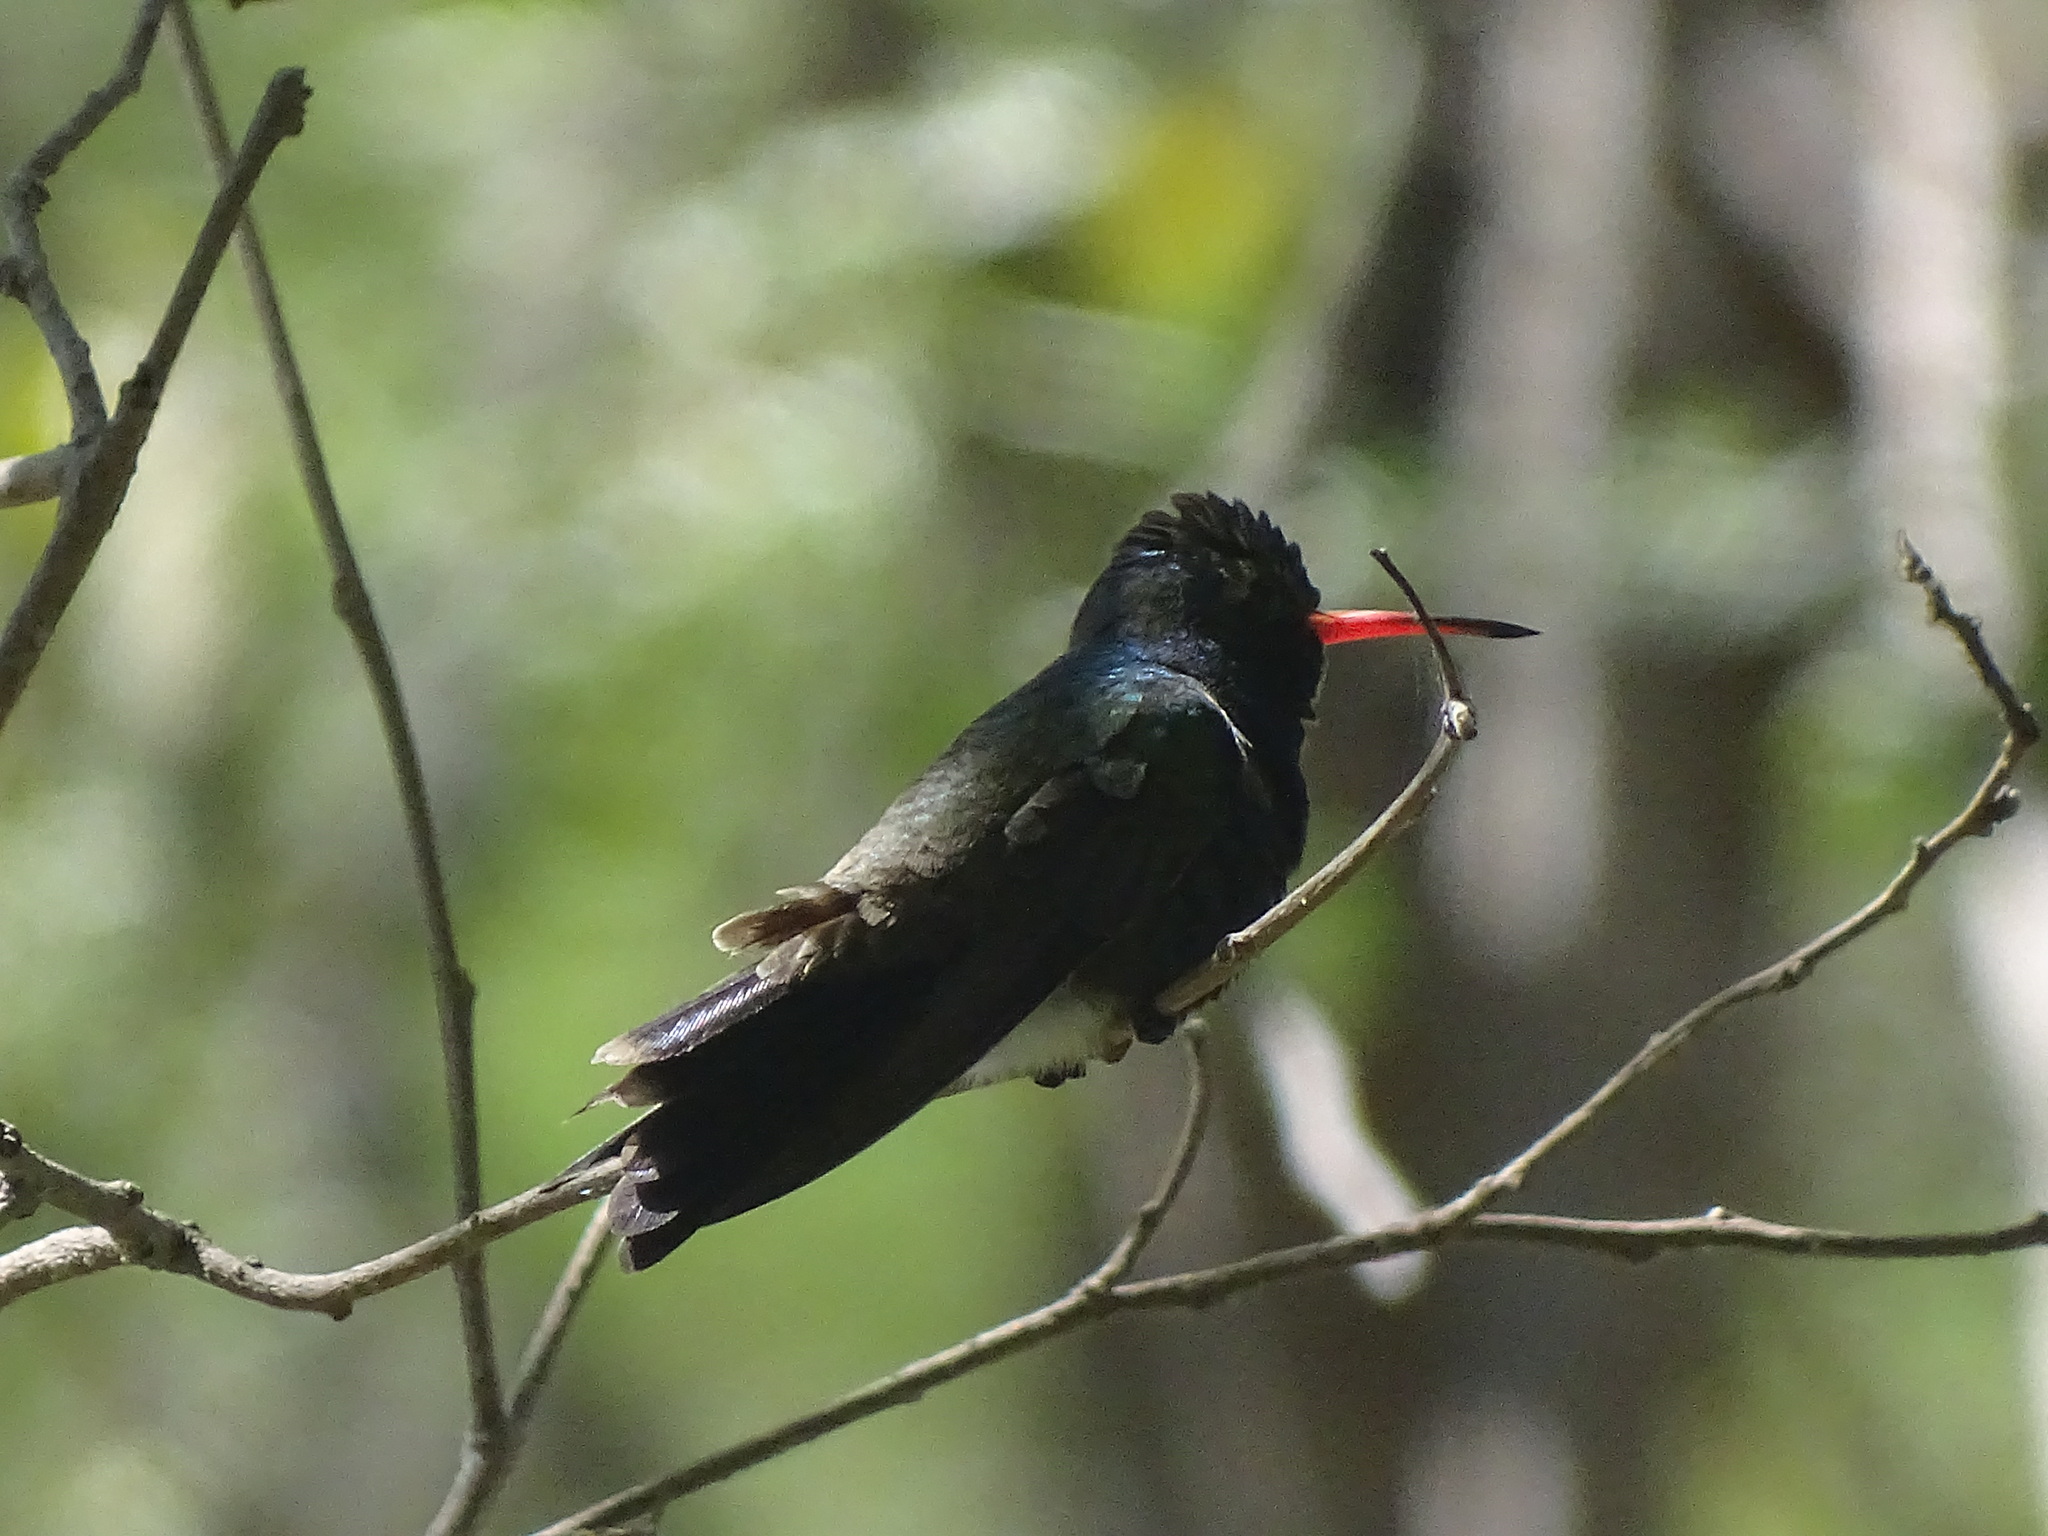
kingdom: Animalia
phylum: Chordata
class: Aves
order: Apodiformes
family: Trochilidae
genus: Cynanthus
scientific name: Cynanthus doubledayi
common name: Doubleday's hummingbird
